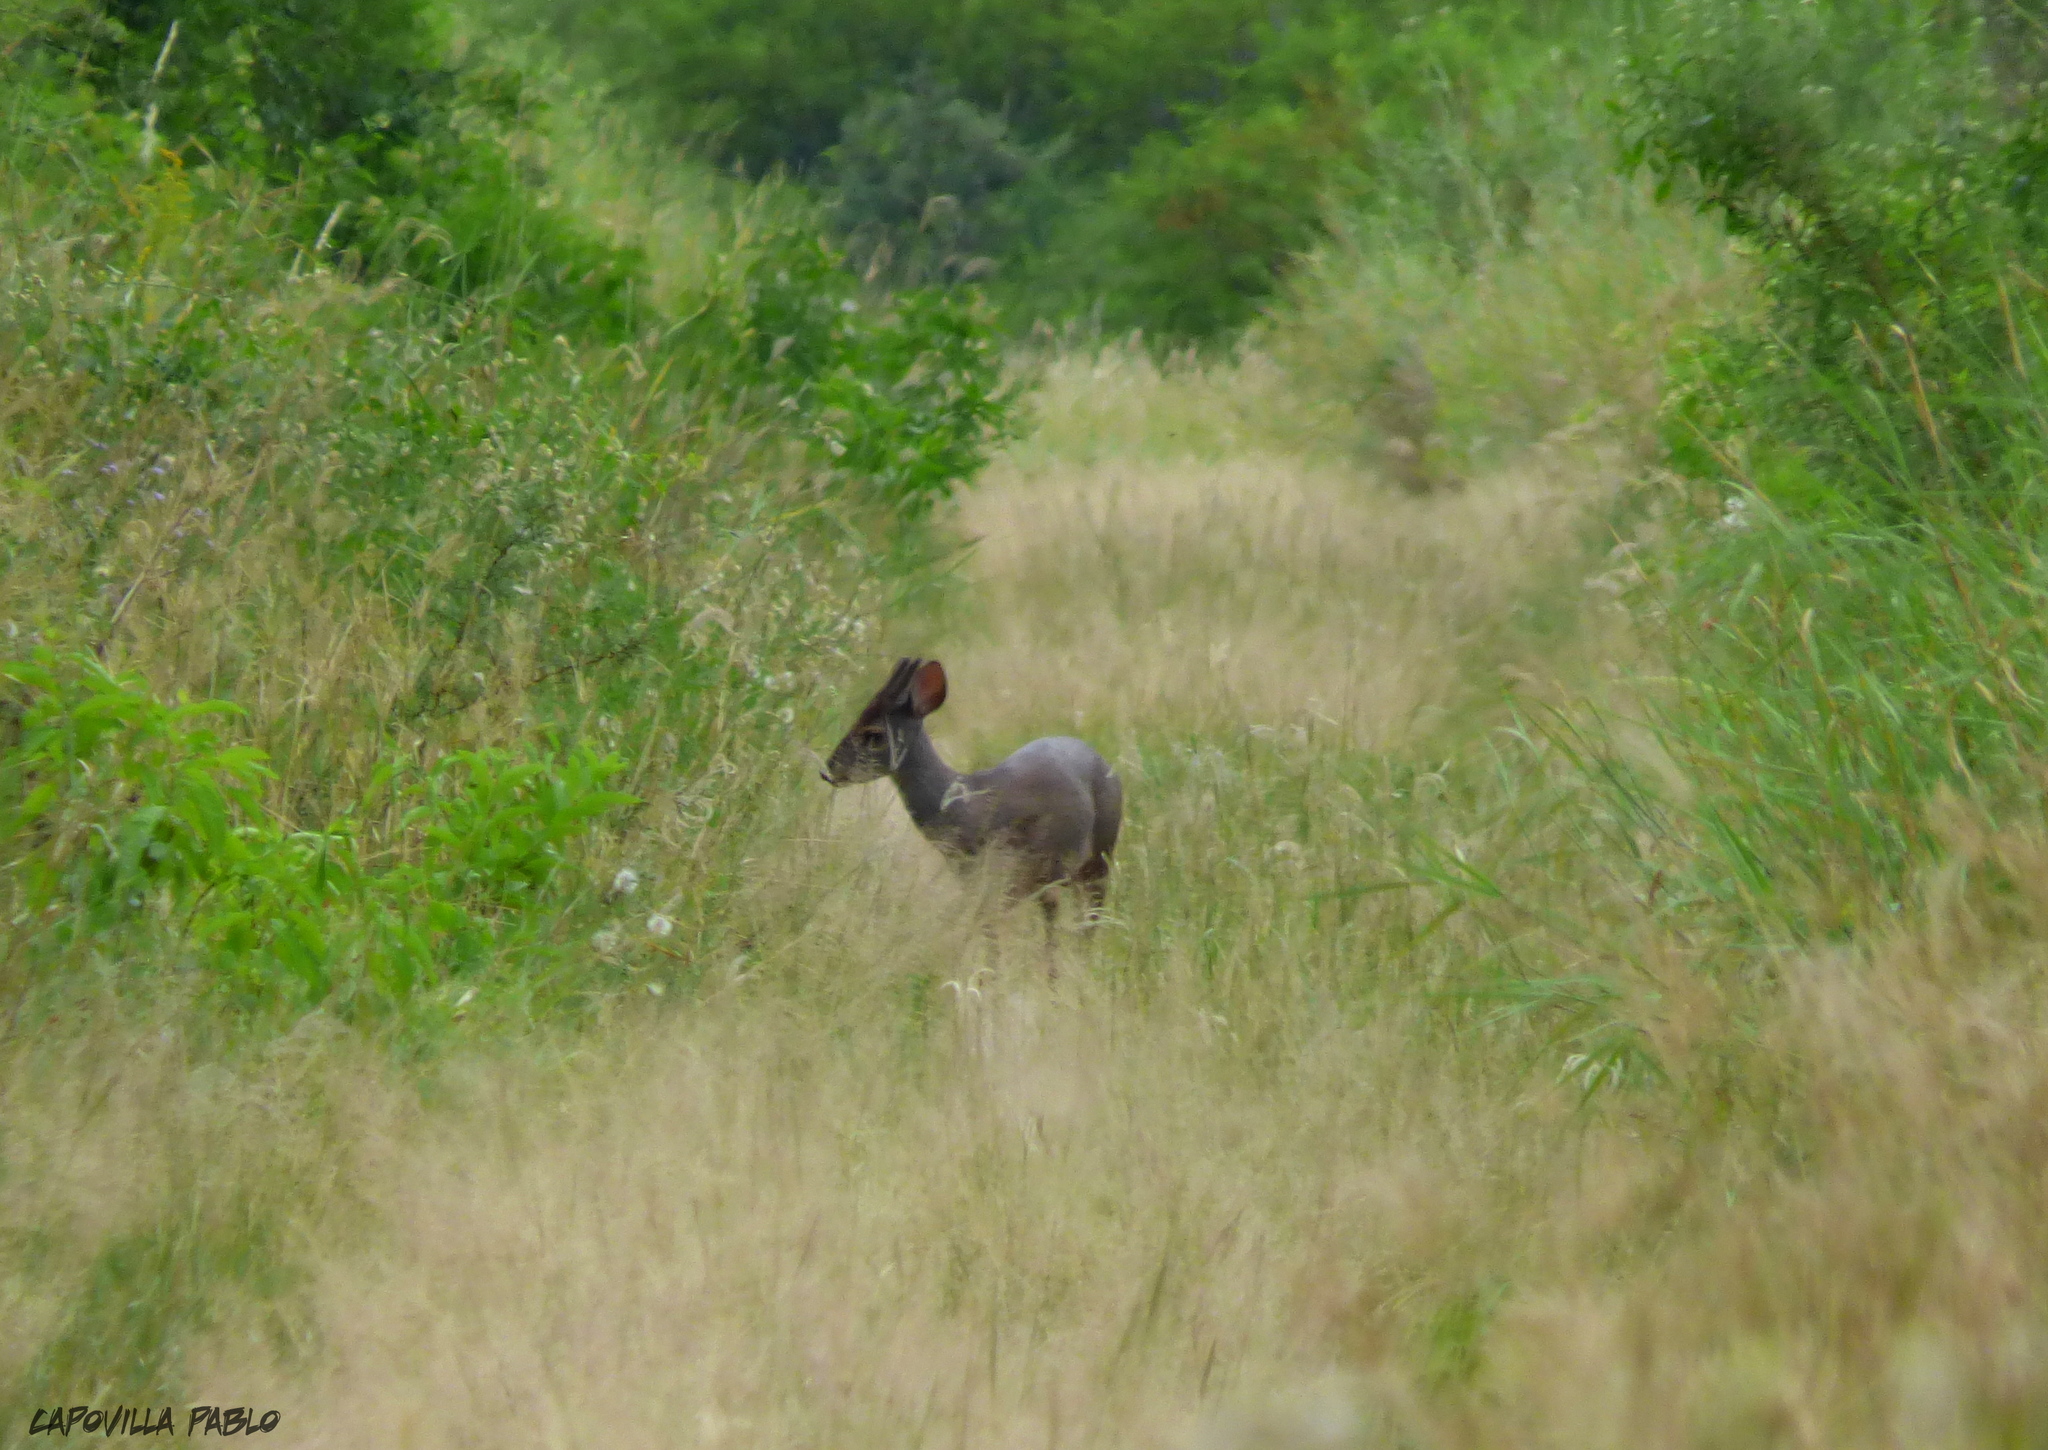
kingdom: Animalia
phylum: Chordata
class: Mammalia
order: Artiodactyla
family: Cervidae
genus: Mazama
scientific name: Mazama gouazoubira
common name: Gray brocket
